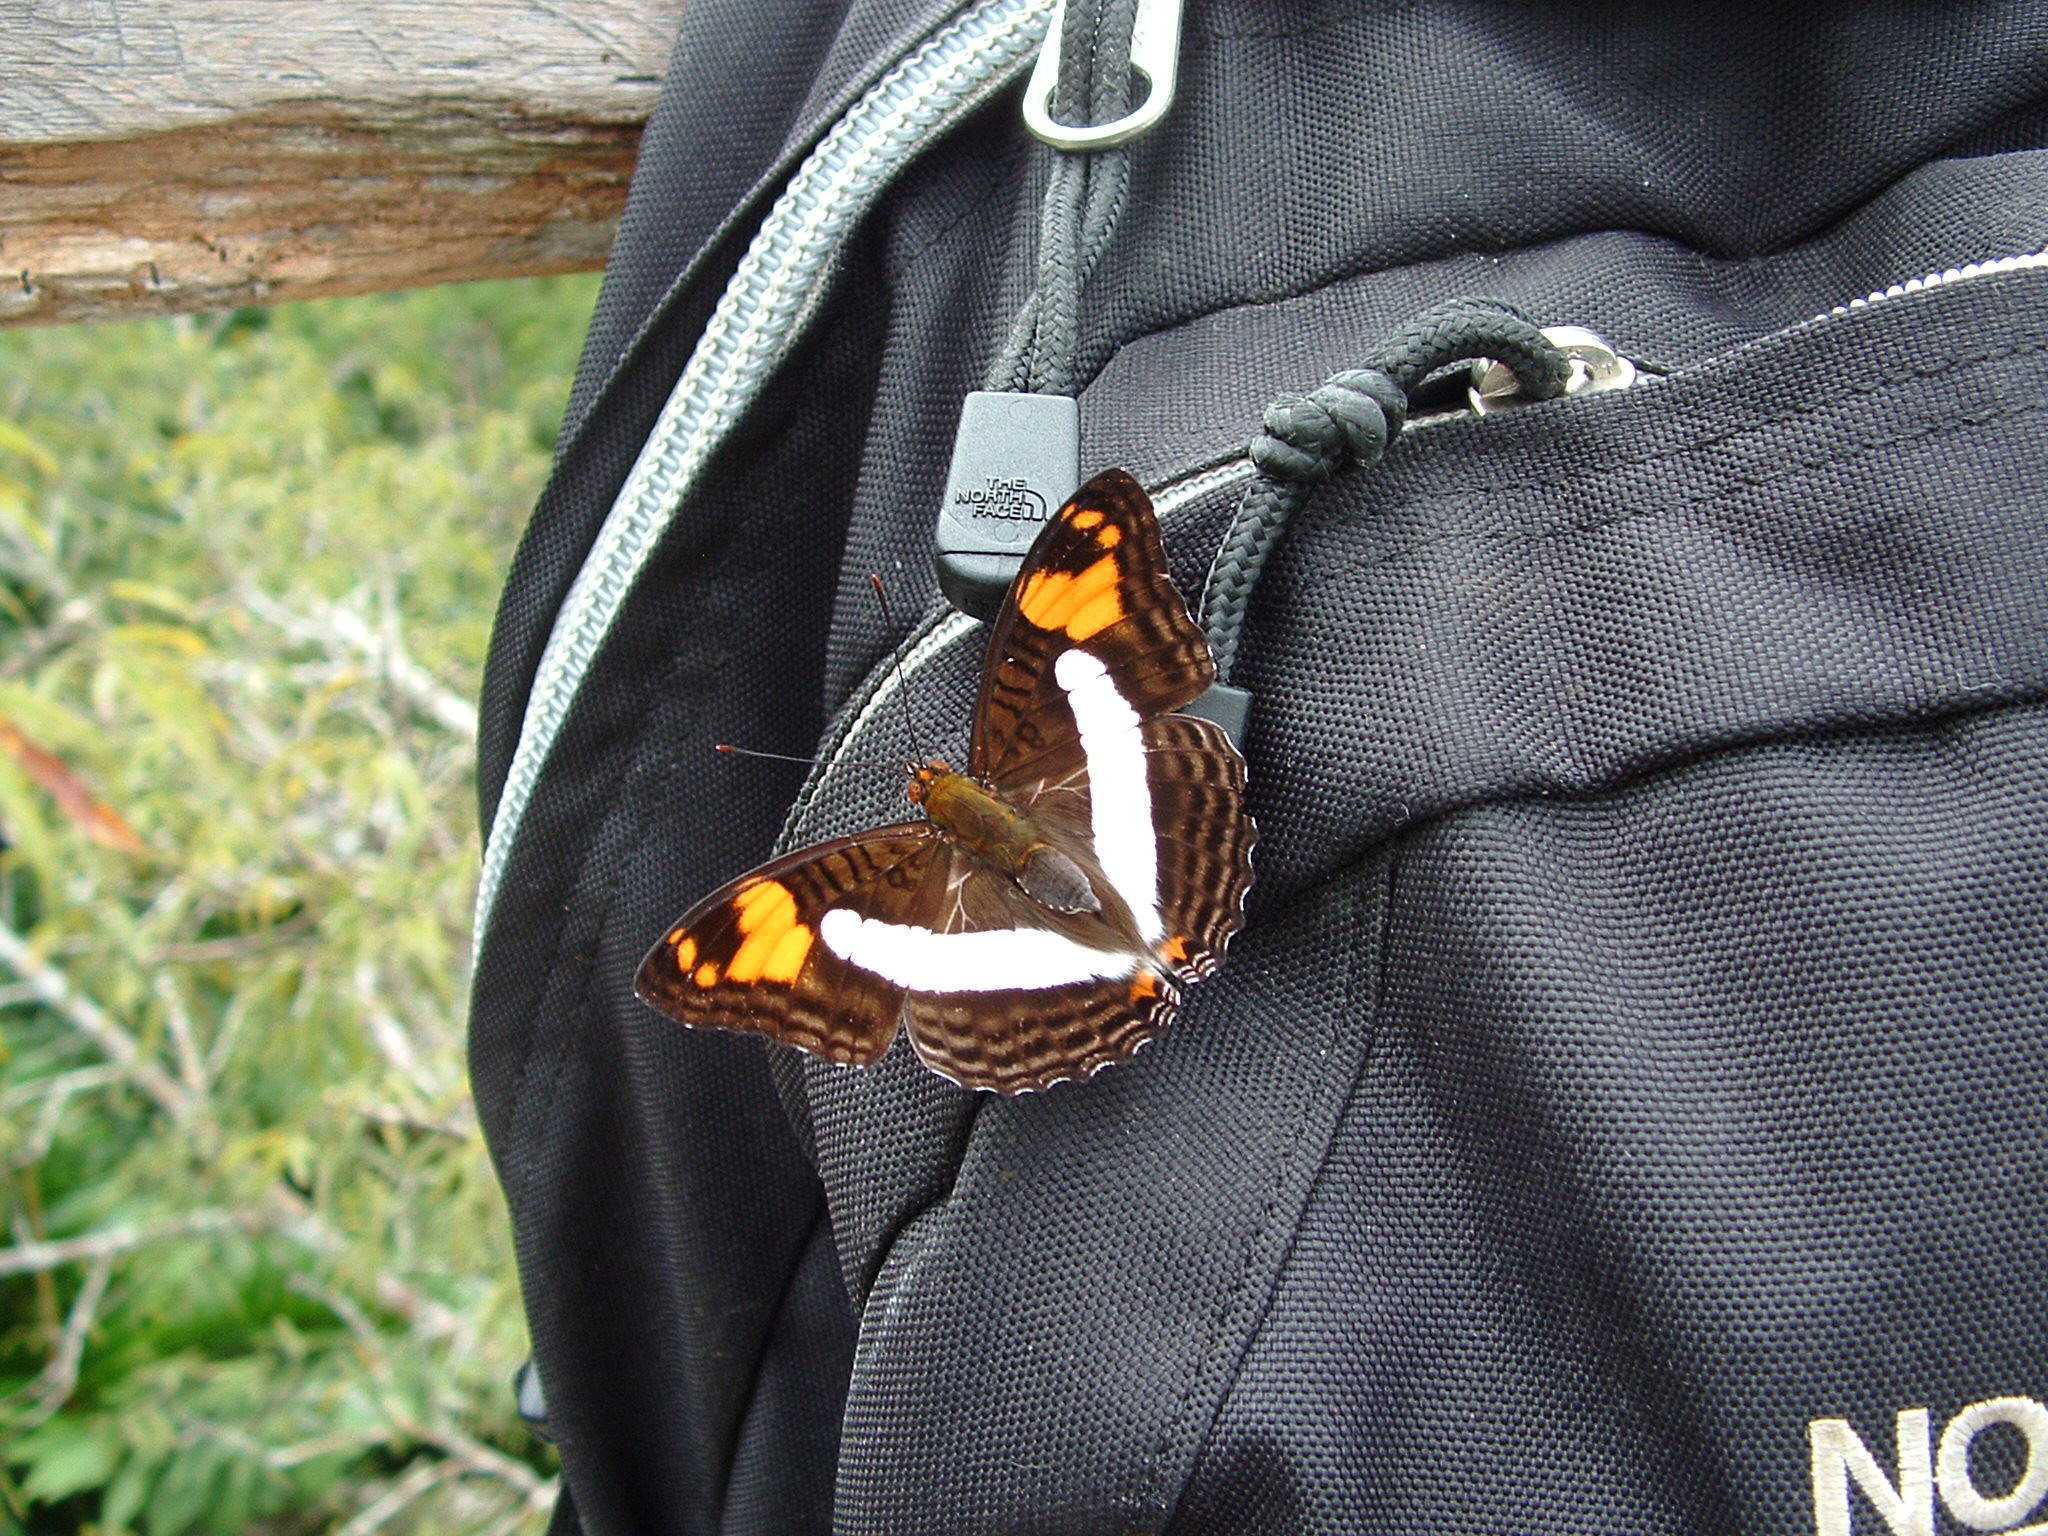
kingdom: Animalia
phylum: Arthropoda
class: Insecta
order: Lepidoptera
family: Nymphalidae
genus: Limenitis
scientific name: Limenitis Adelpha iphiclus
